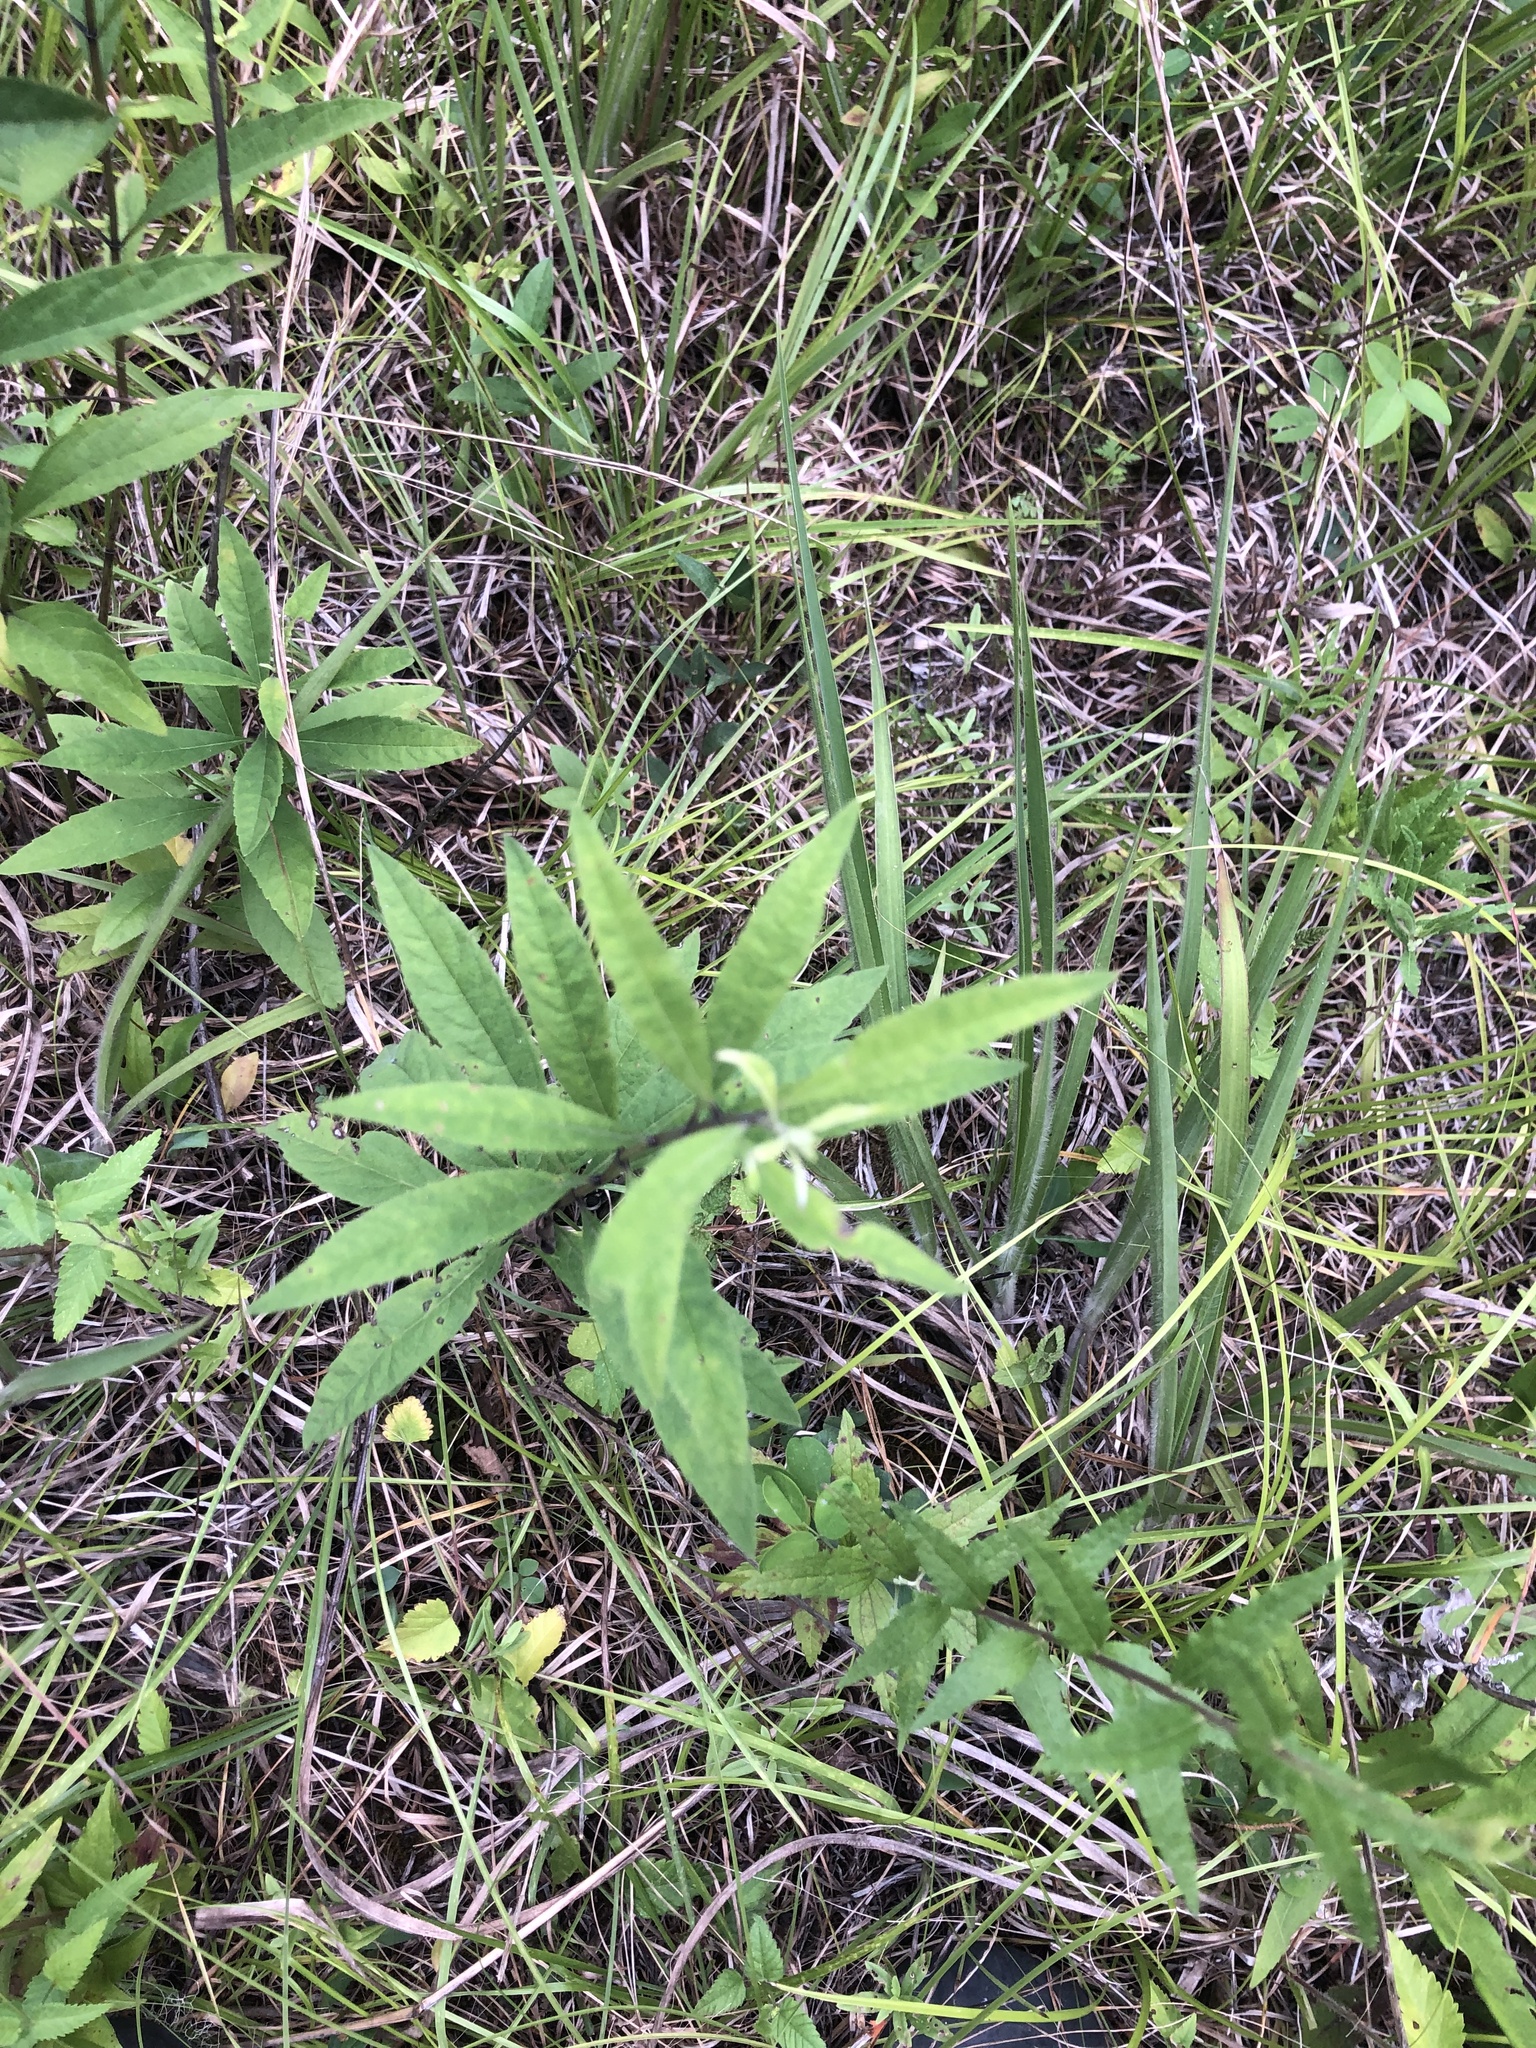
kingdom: Plantae
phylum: Tracheophyta
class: Magnoliopsida
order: Lamiales
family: Lamiaceae
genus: Salvia
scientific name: Salvia azurea
